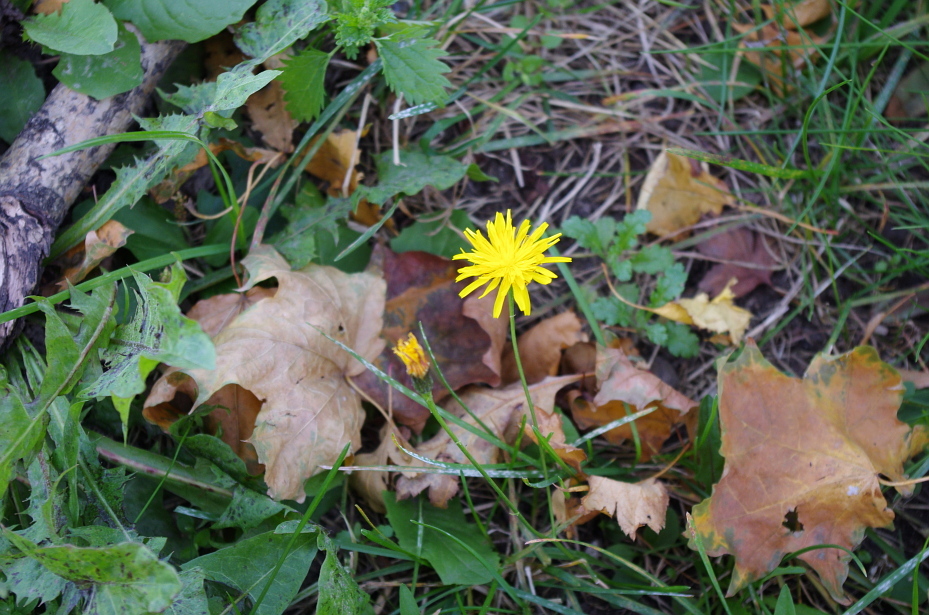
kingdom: Plantae
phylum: Tracheophyta
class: Magnoliopsida
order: Asterales
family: Asteraceae
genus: Scorzoneroides
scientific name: Scorzoneroides autumnalis
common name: Autumn hawkbit
